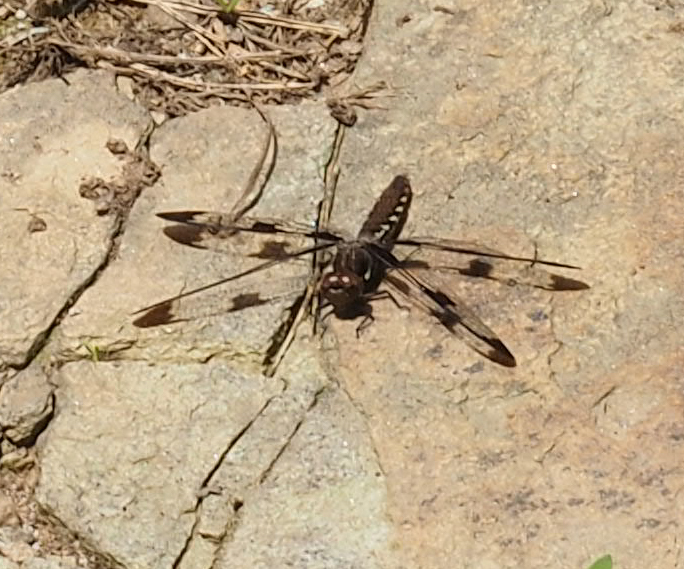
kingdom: Animalia
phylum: Arthropoda
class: Insecta
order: Odonata
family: Libellulidae
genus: Plathemis
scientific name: Plathemis lydia
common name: Common whitetail
